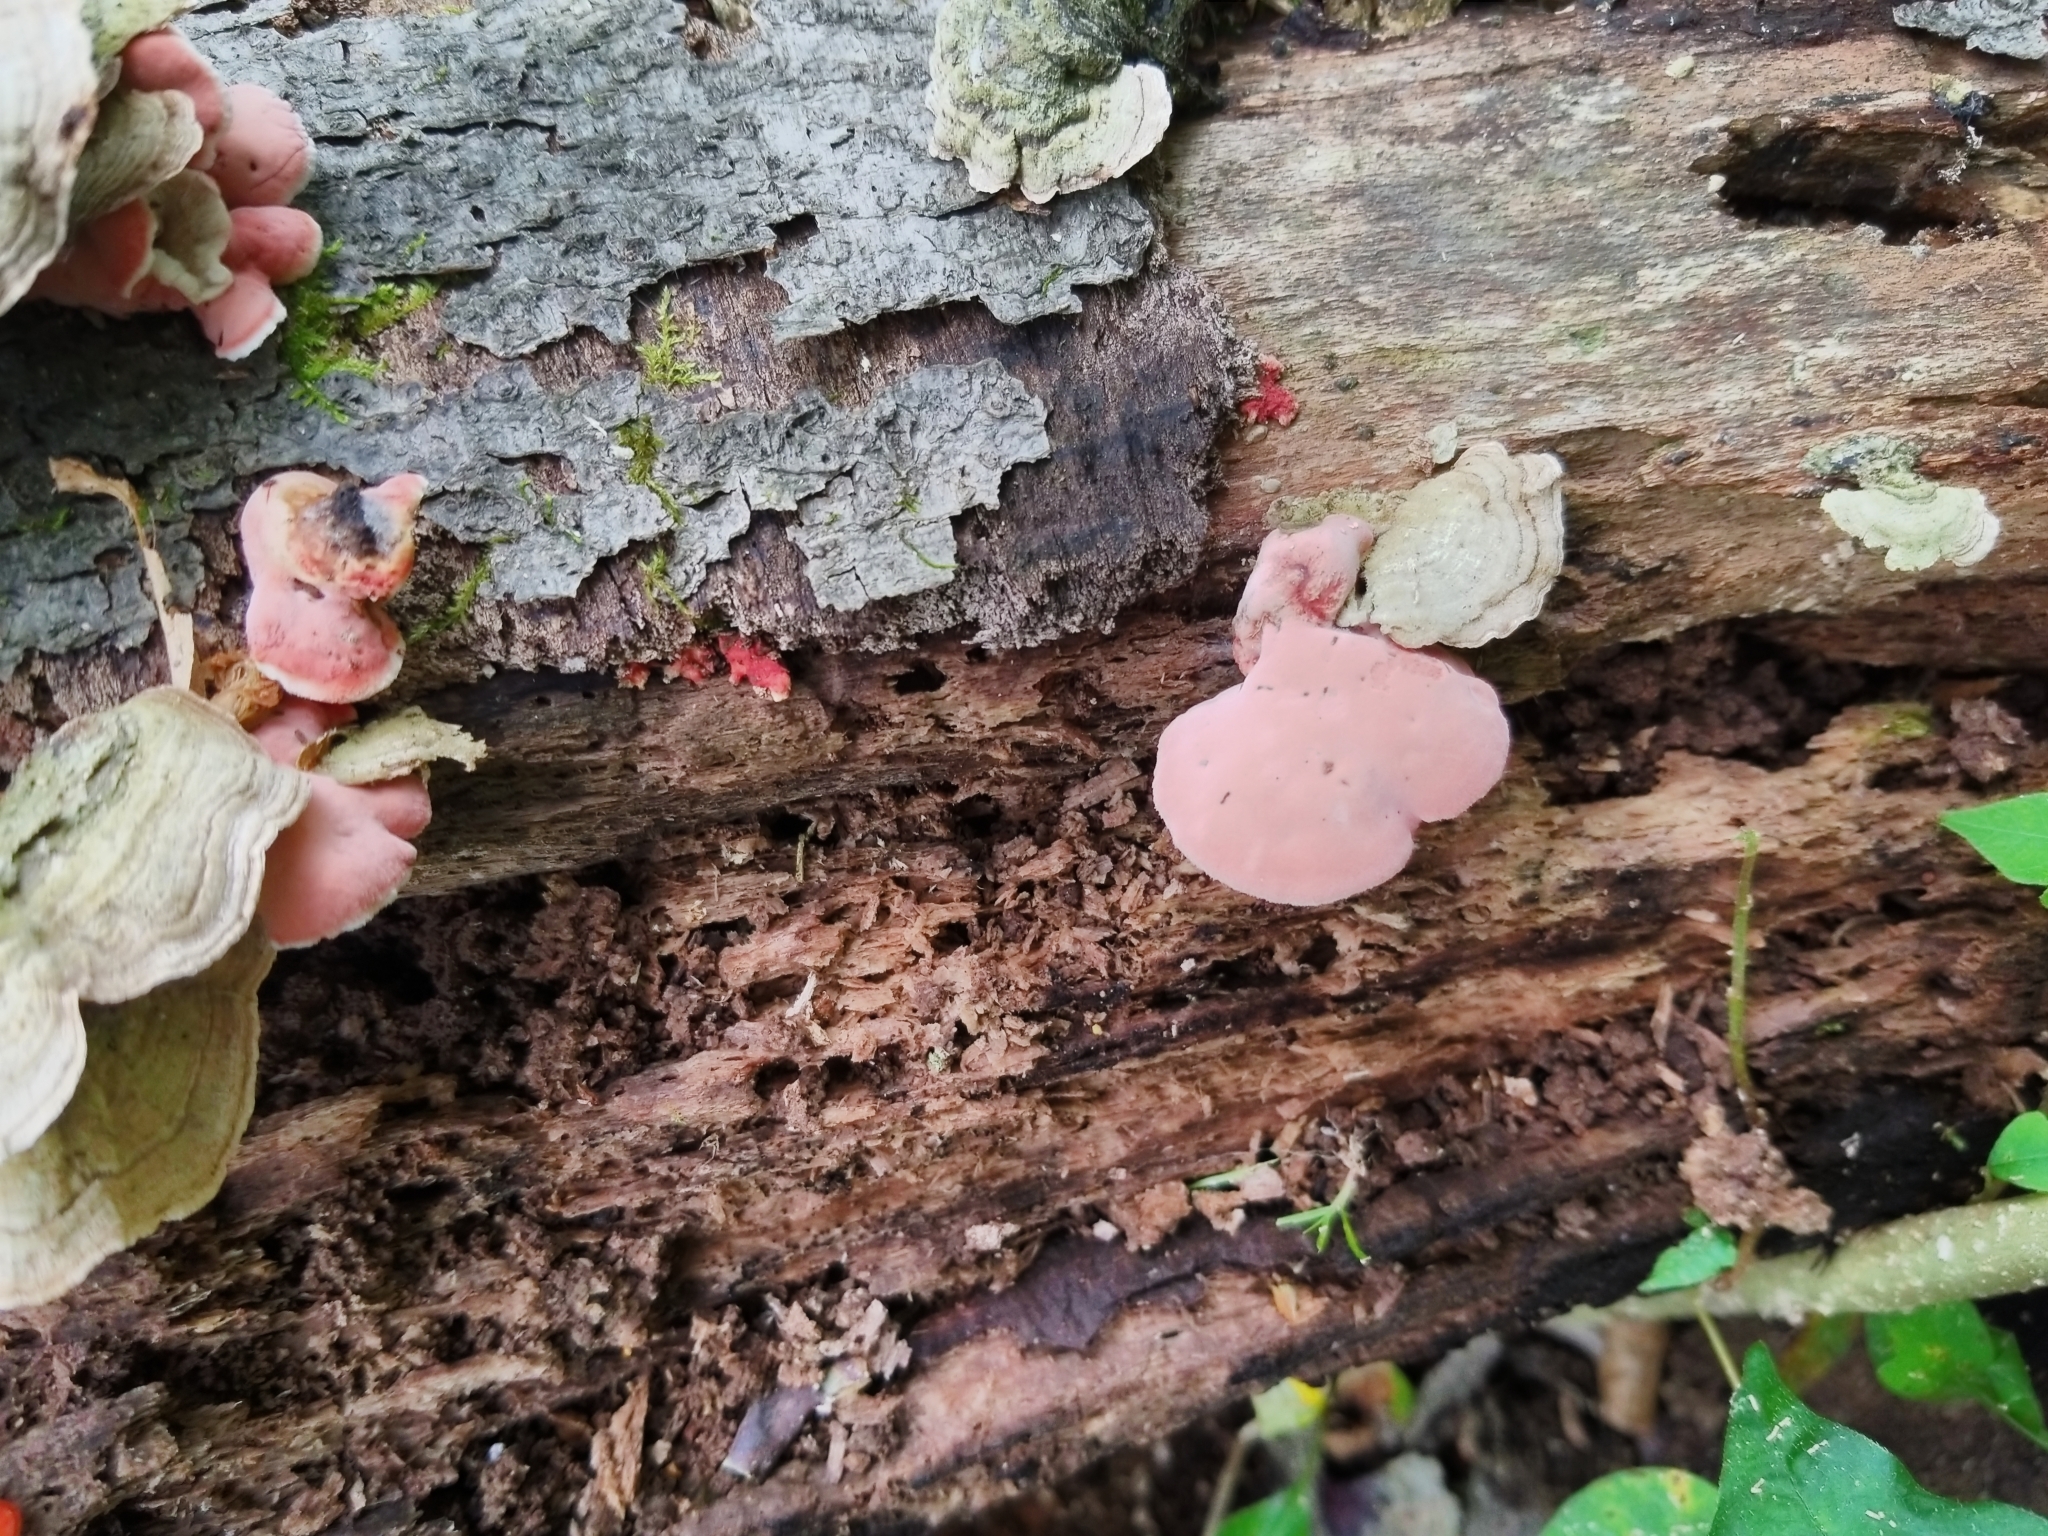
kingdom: Fungi
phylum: Basidiomycota
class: Agaricomycetes
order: Polyporales
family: Irpicaceae
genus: Byssomerulius
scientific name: Byssomerulius incarnatus
